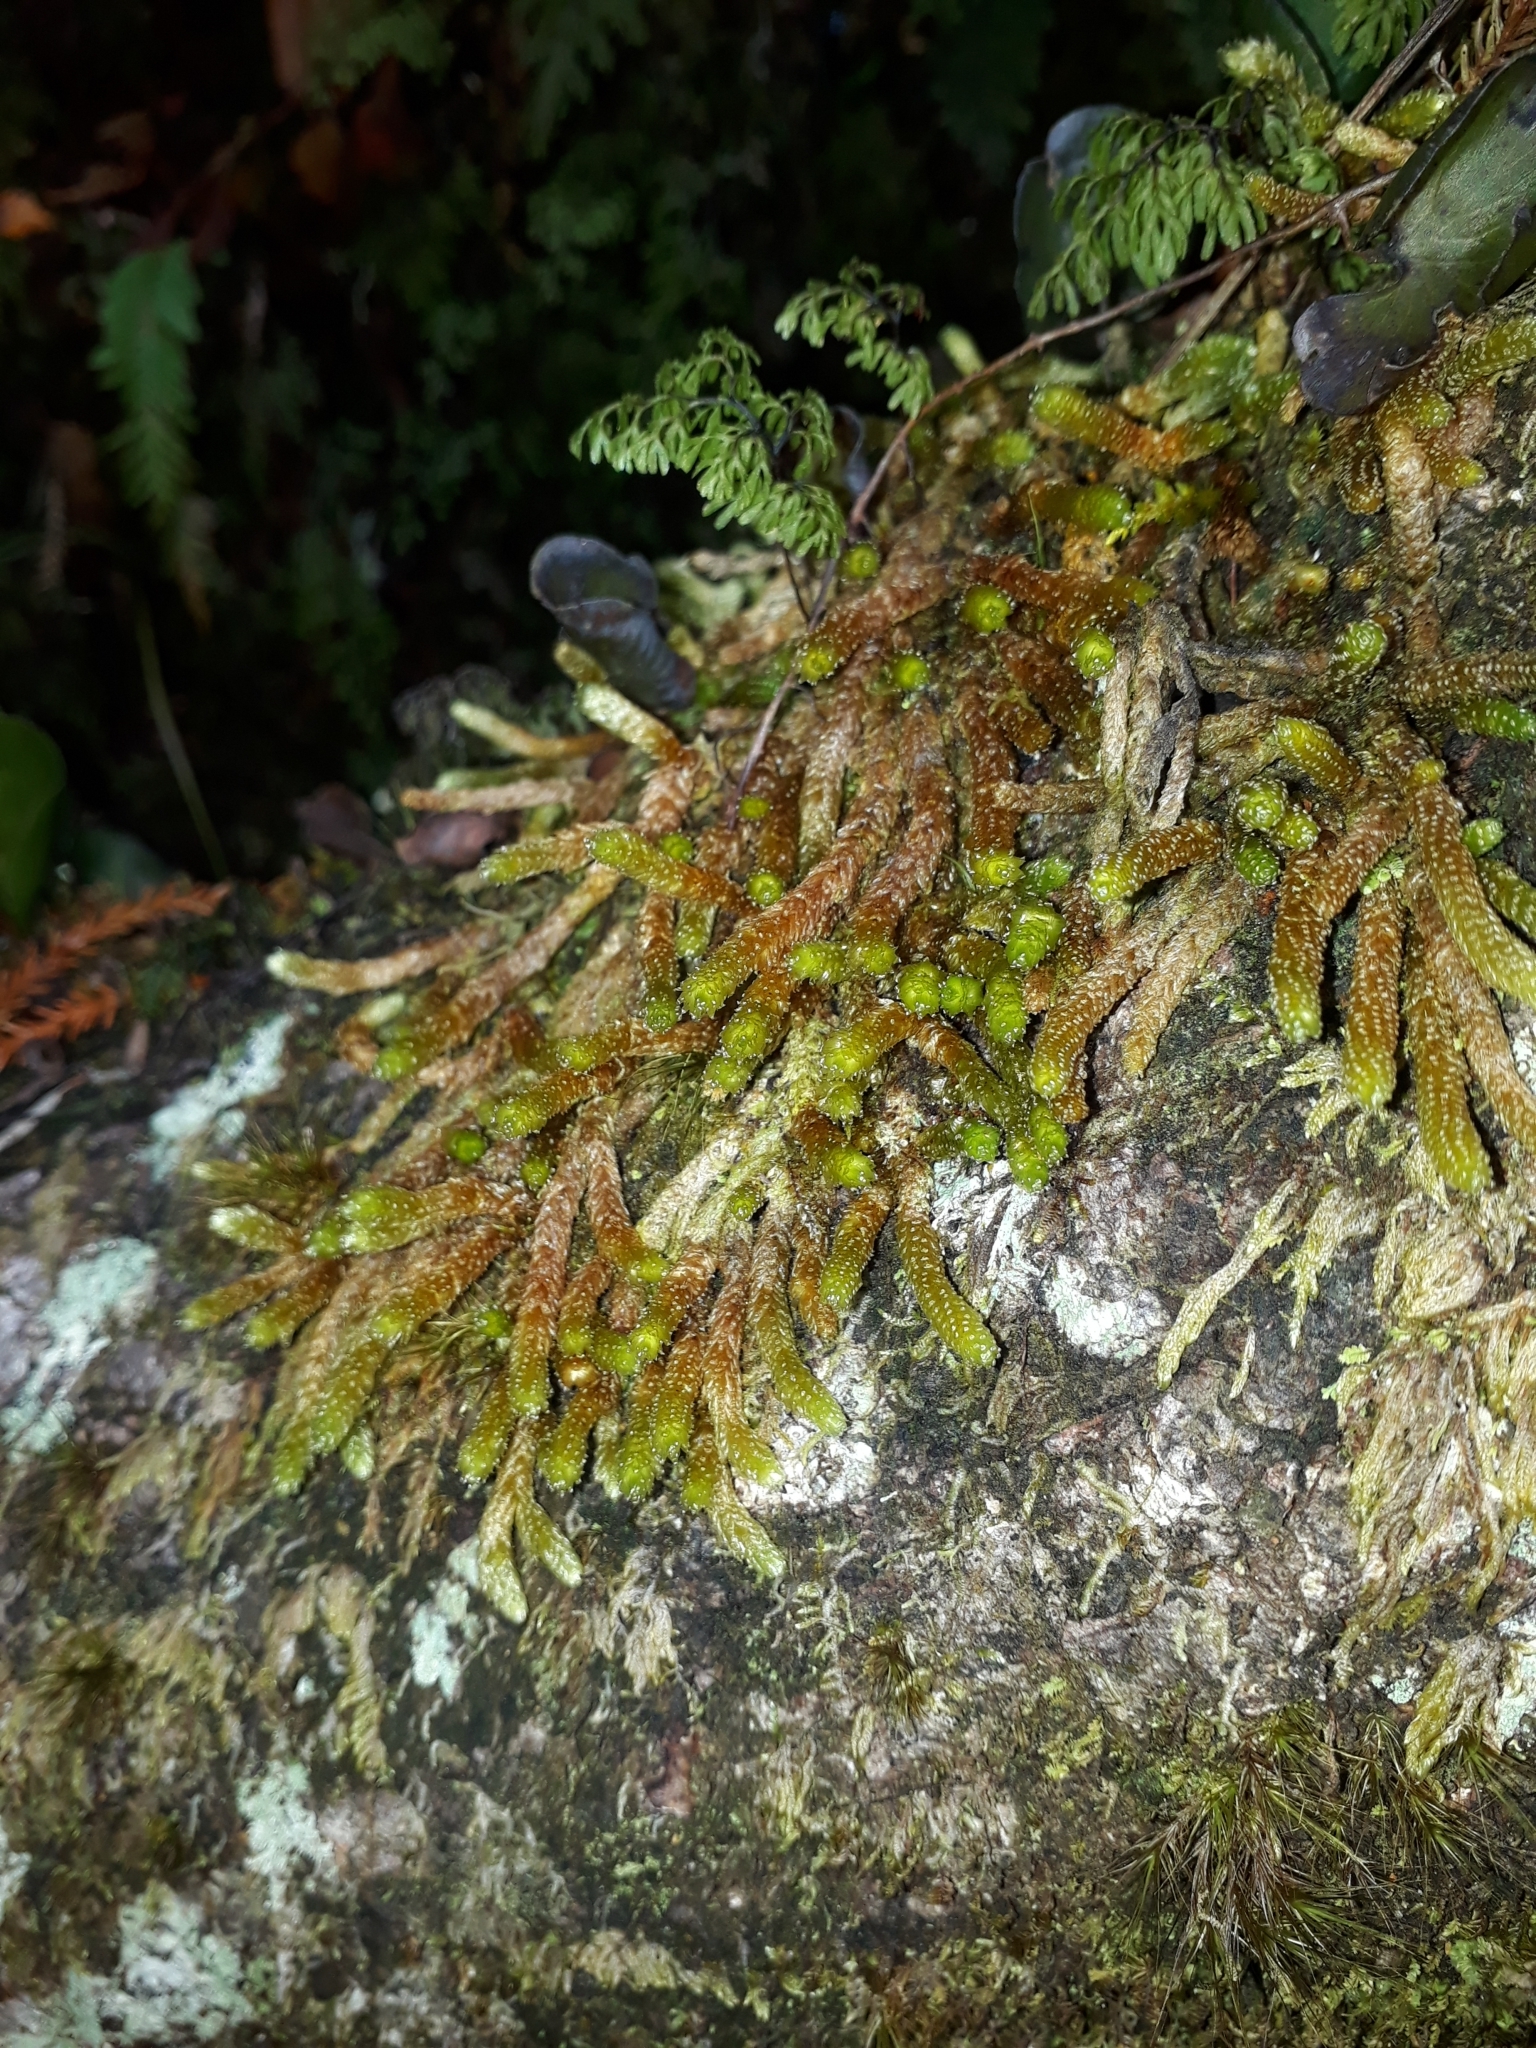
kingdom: Plantae
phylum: Bryophyta
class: Bryopsida
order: Ptychomniales
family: Ptychomniaceae
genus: Cladomnion
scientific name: Cladomnion ericoides
